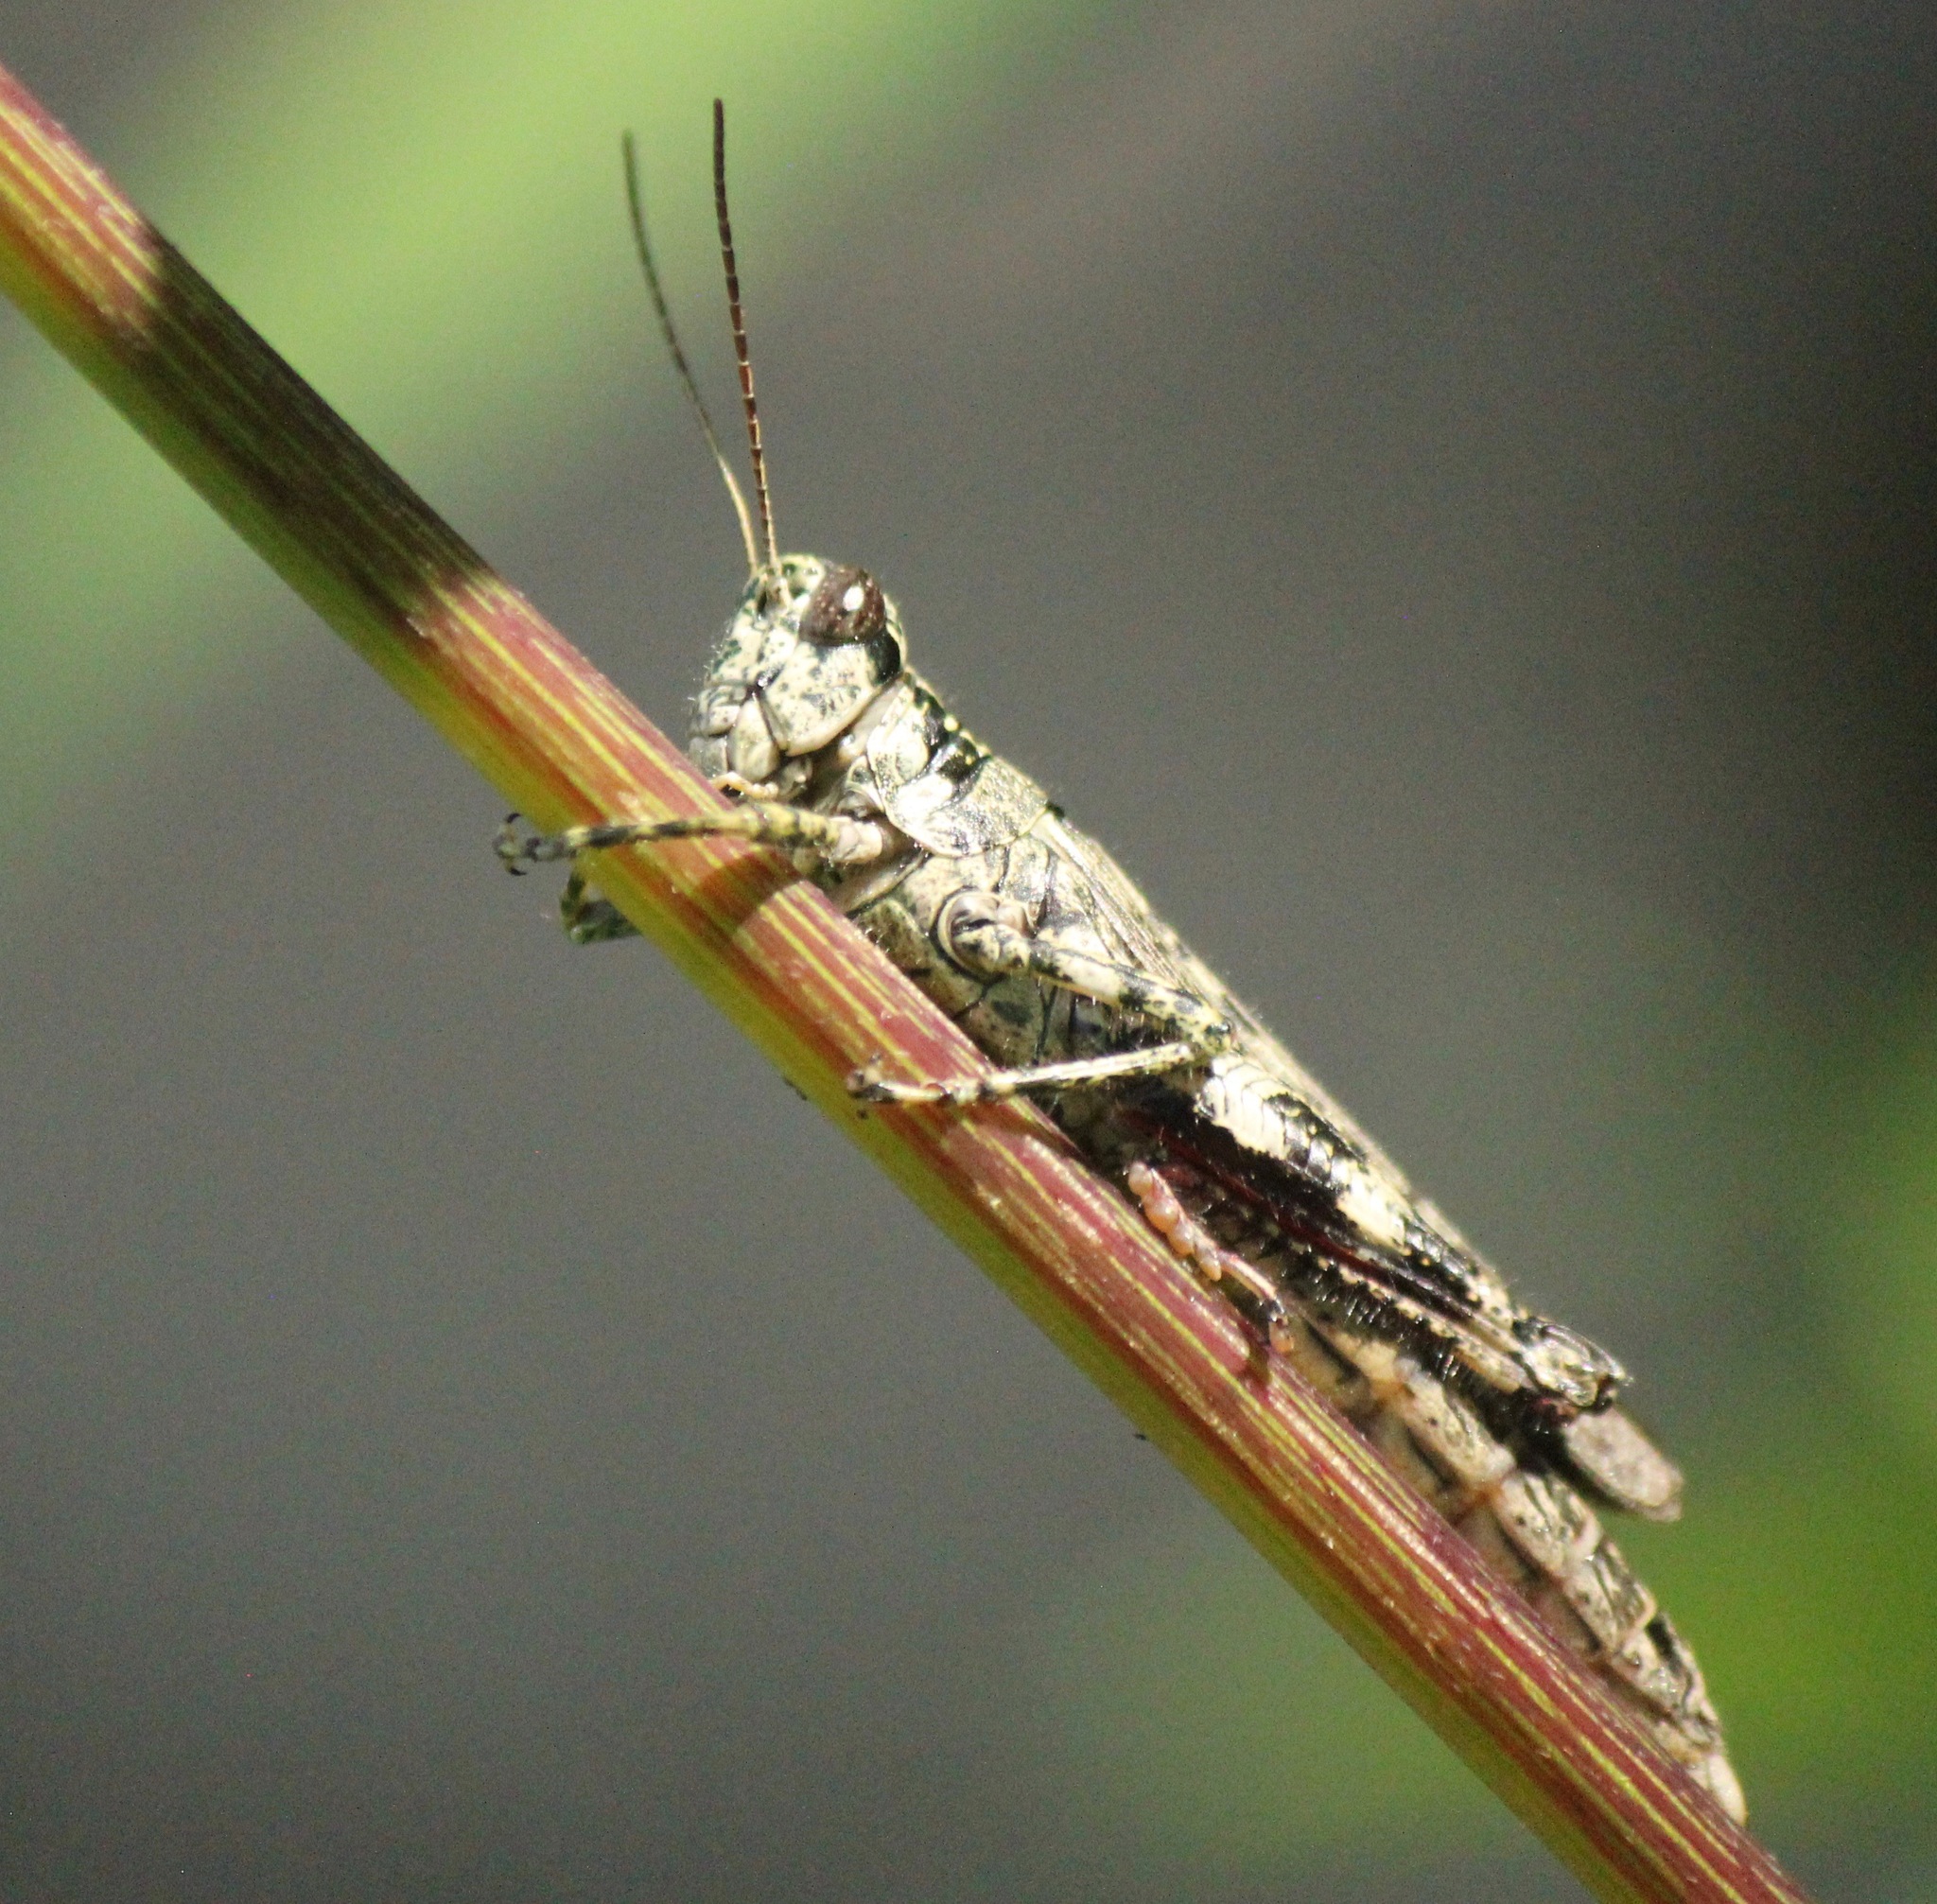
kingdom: Animalia
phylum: Arthropoda
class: Insecta
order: Orthoptera
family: Acrididae
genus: Melanoplus
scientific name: Melanoplus punctulatus
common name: Pine-tree spur-throat grasshopper
